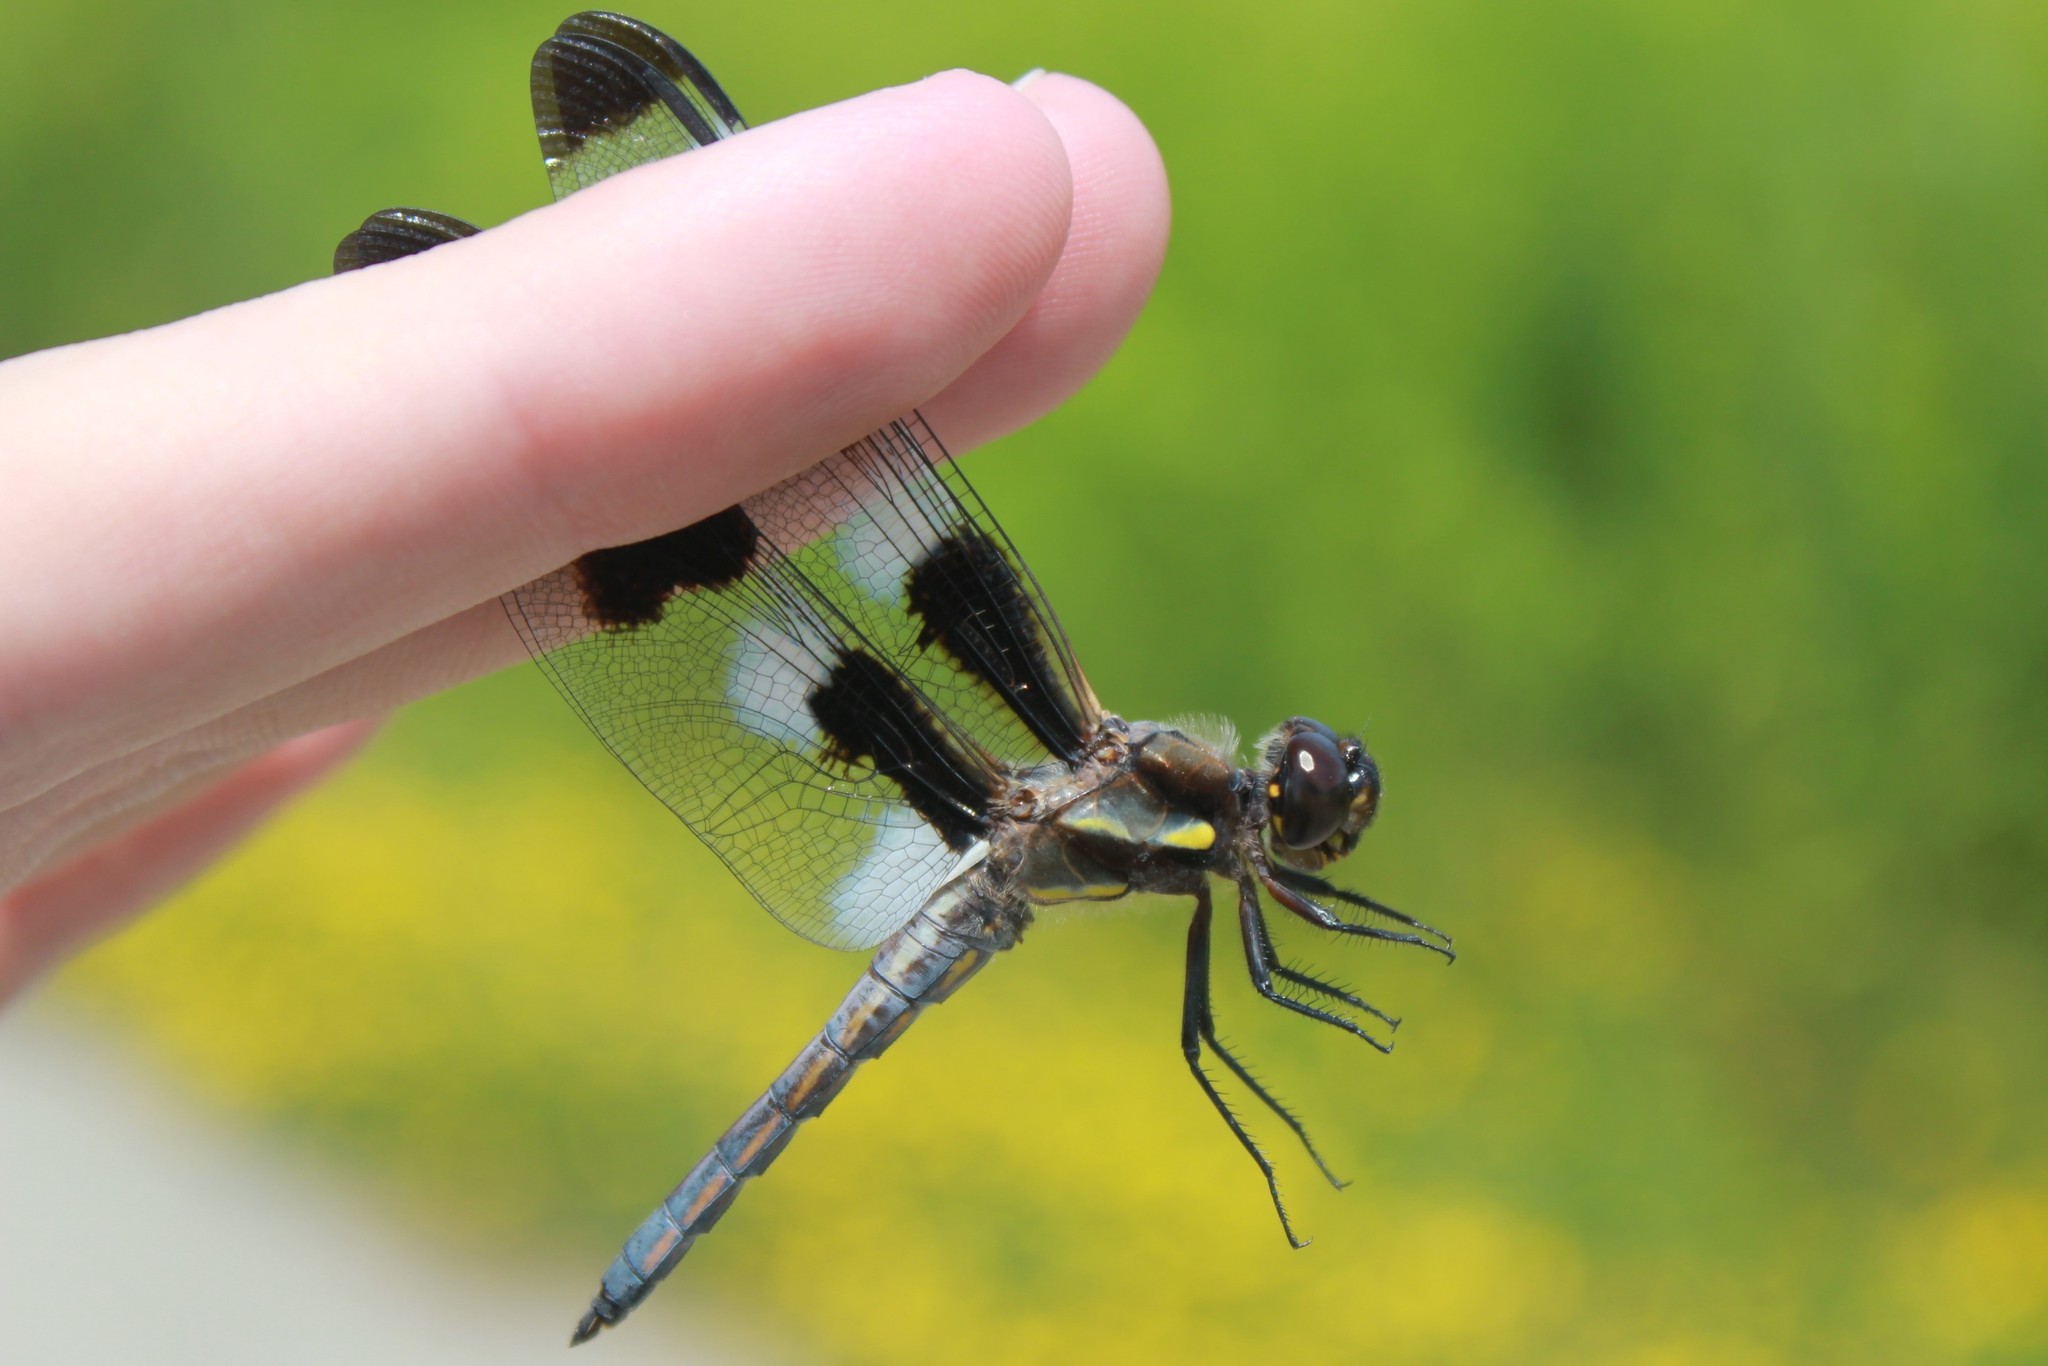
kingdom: Animalia
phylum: Arthropoda
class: Insecta
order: Odonata
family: Libellulidae
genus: Libellula
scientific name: Libellula pulchella
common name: Twelve-spotted skimmer
